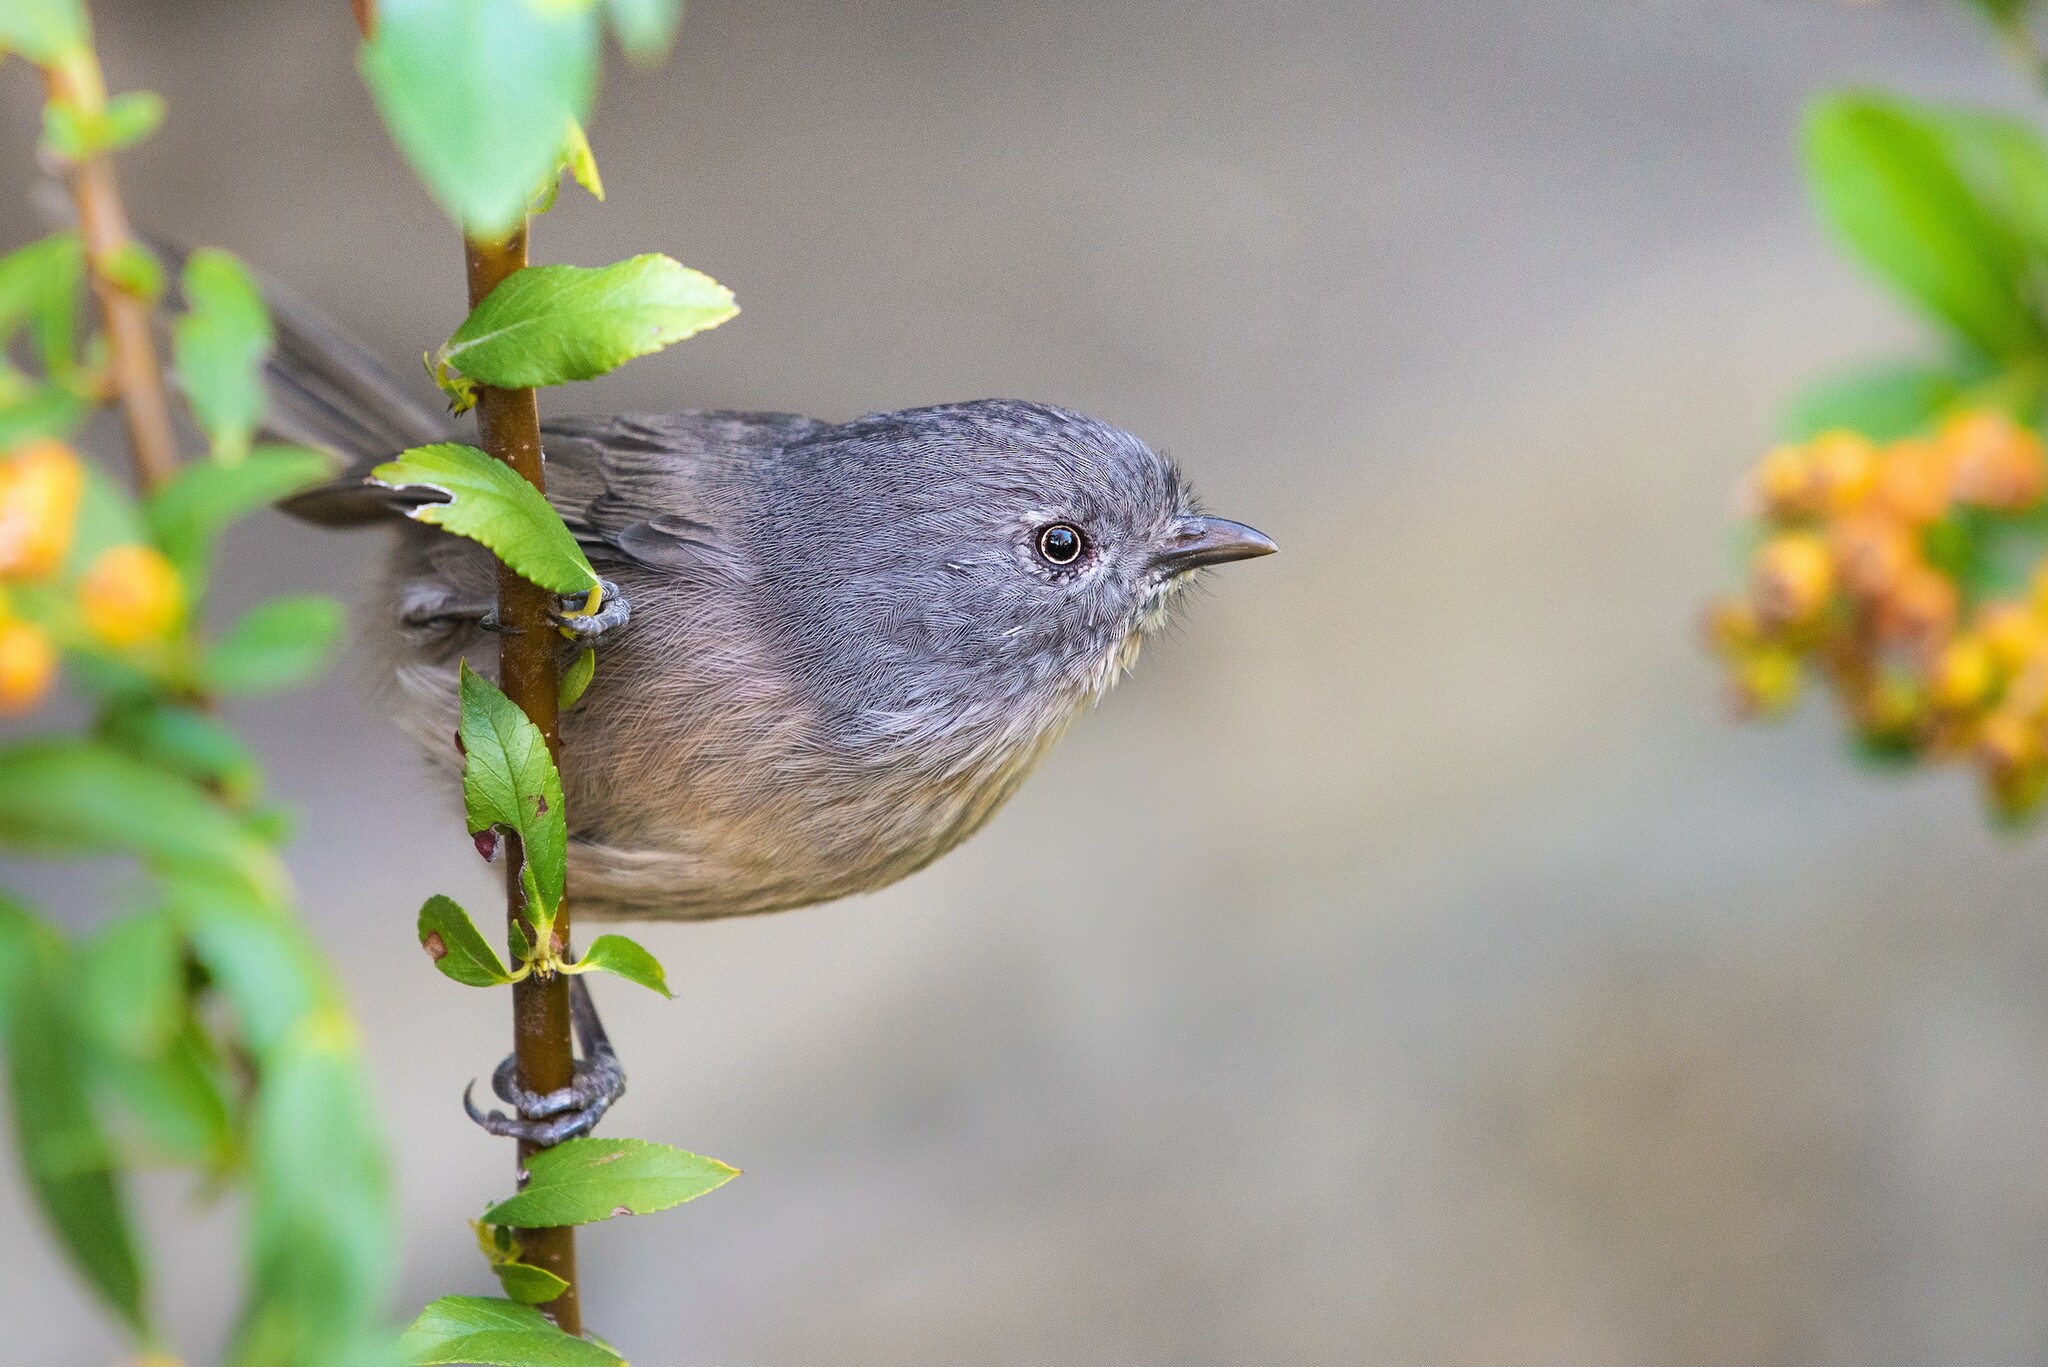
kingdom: Animalia
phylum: Chordata
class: Aves
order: Passeriformes
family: Sylviidae
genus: Chamaea
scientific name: Chamaea fasciata
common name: Wrentit
